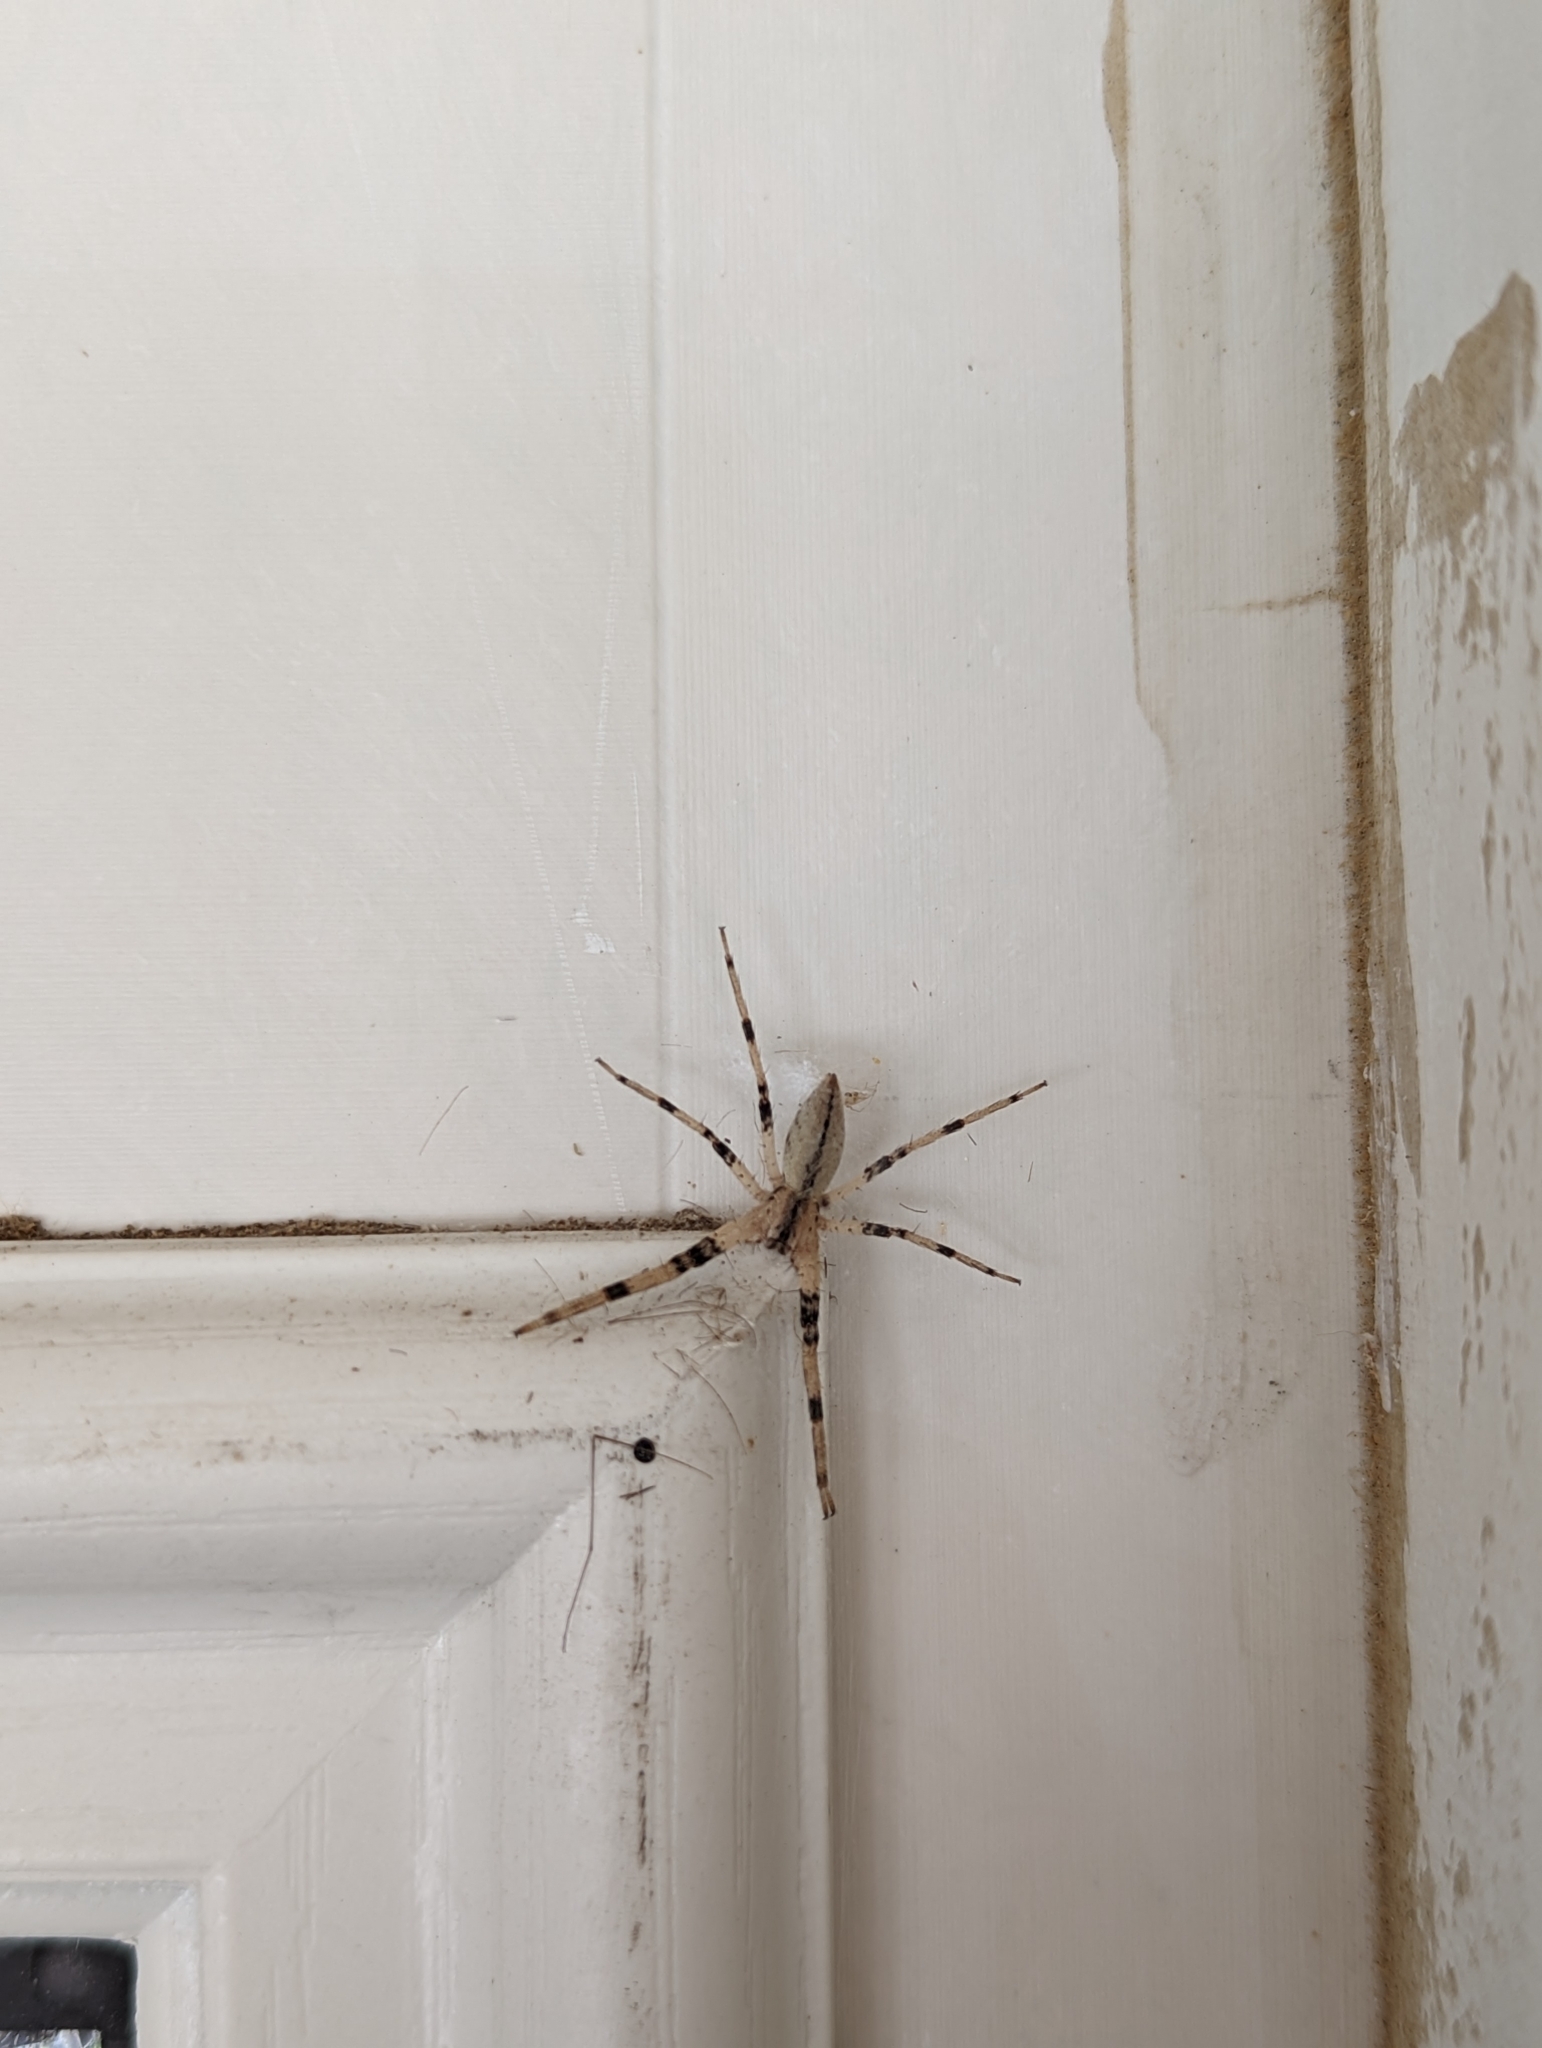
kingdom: Animalia
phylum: Arthropoda
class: Arachnida
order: Araneae
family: Pisauridae
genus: Pisaurina
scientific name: Pisaurina mira
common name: American nursery web spider
